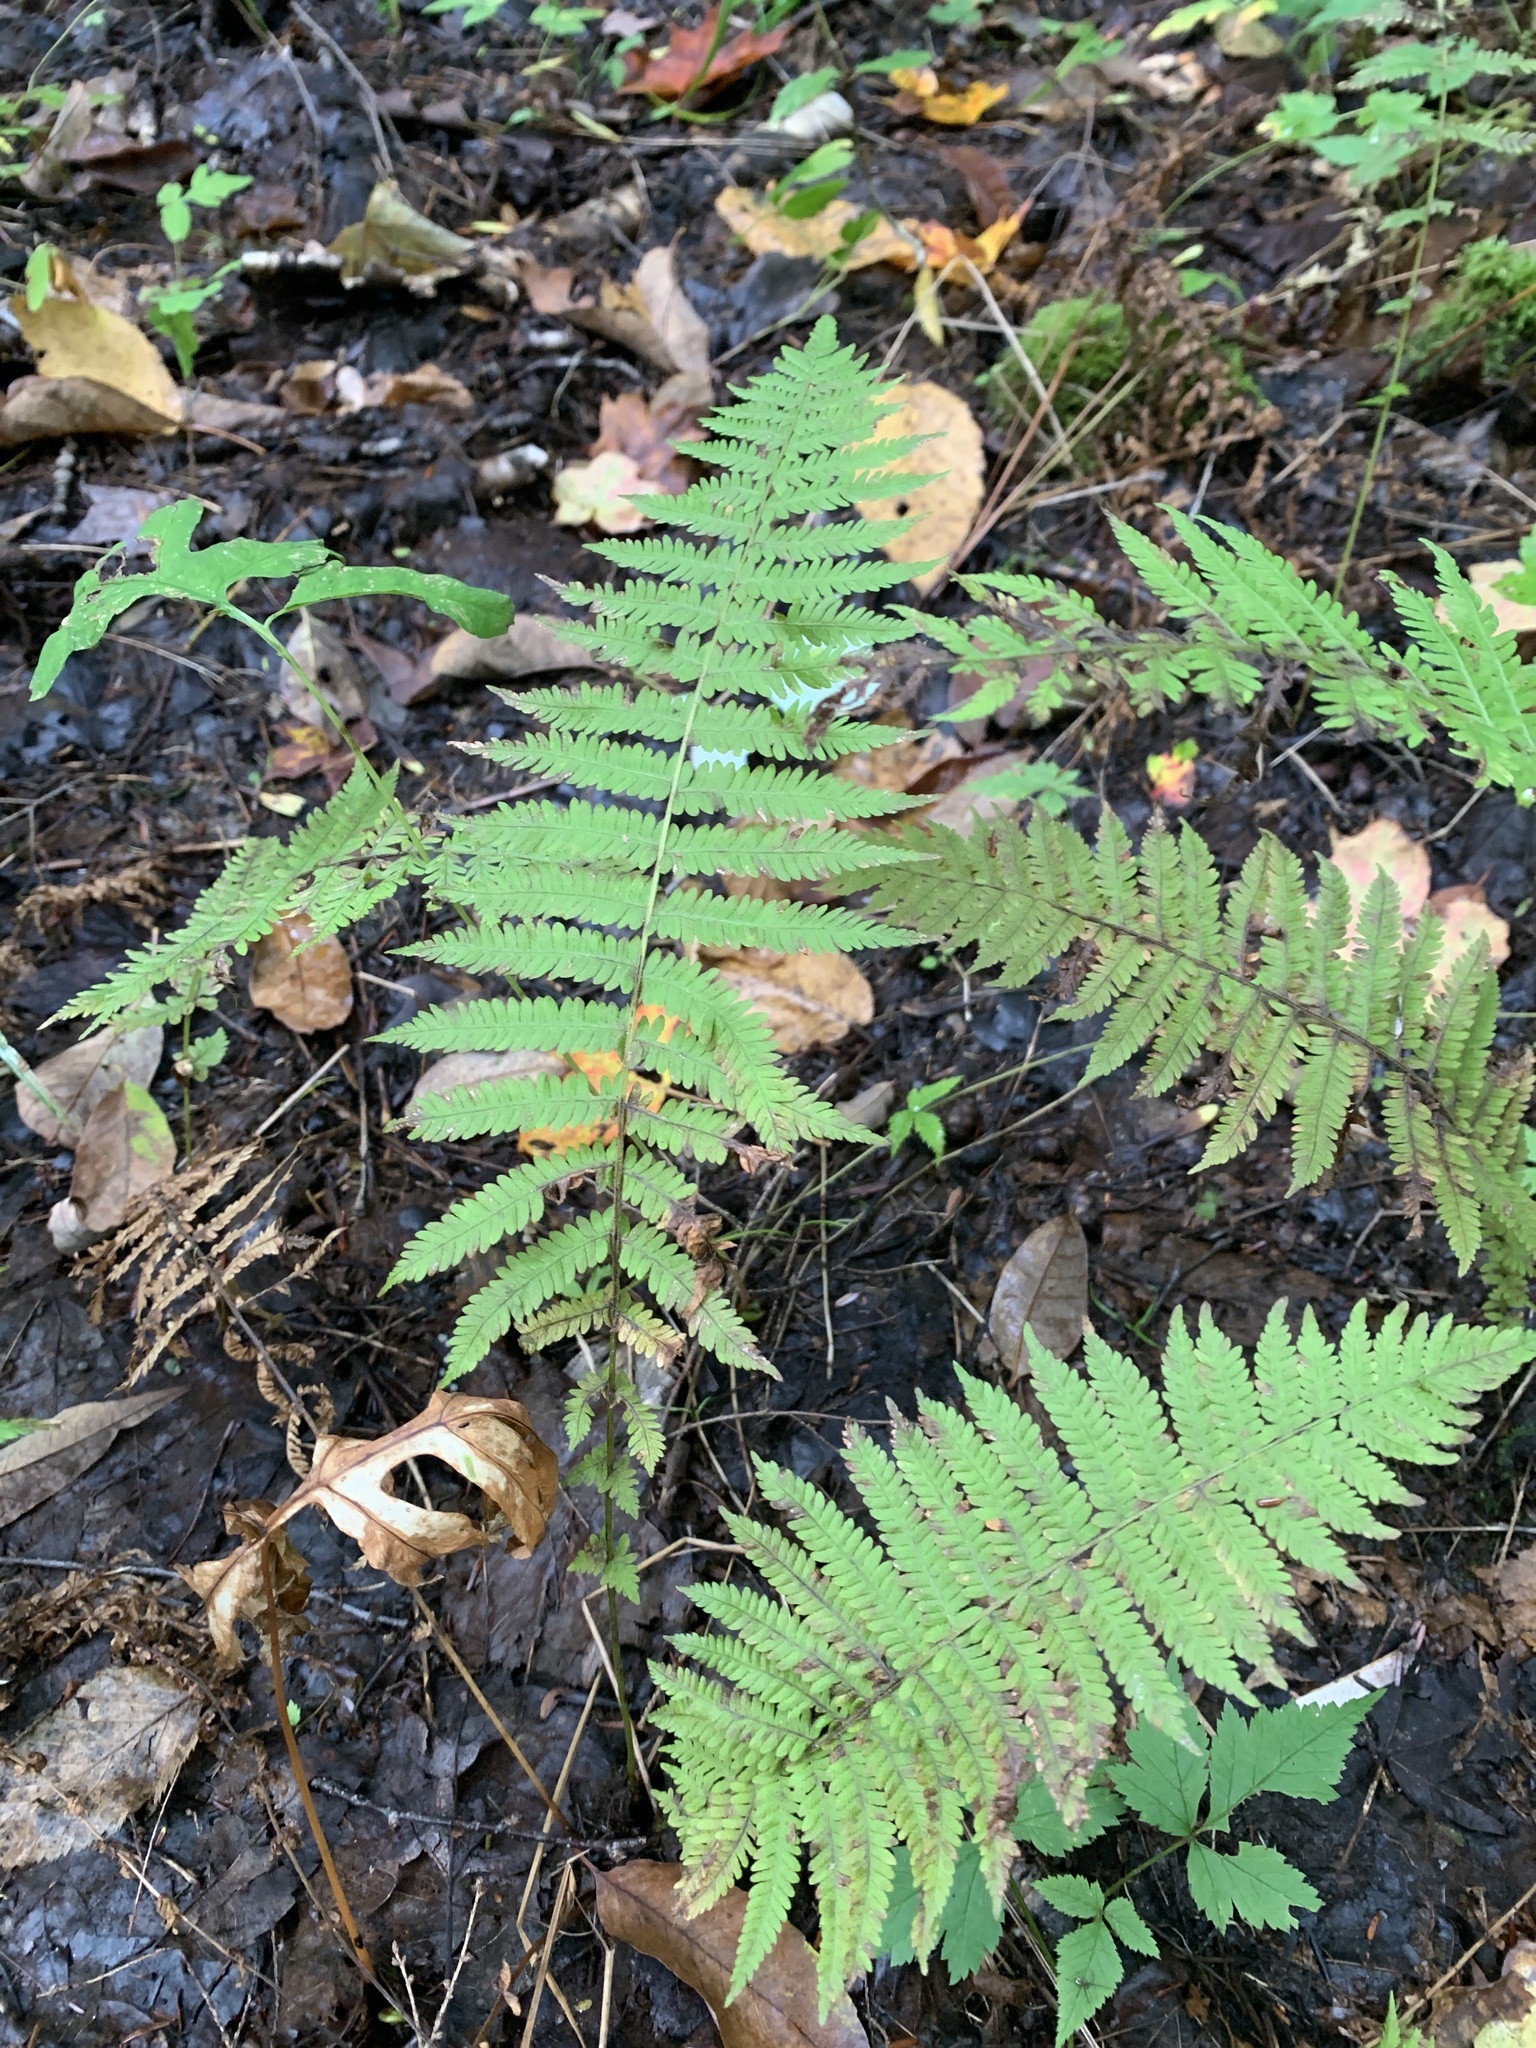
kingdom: Plantae
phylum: Tracheophyta
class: Polypodiopsida
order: Polypodiales
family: Thelypteridaceae
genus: Amauropelta
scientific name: Amauropelta noveboracensis
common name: New york fern
